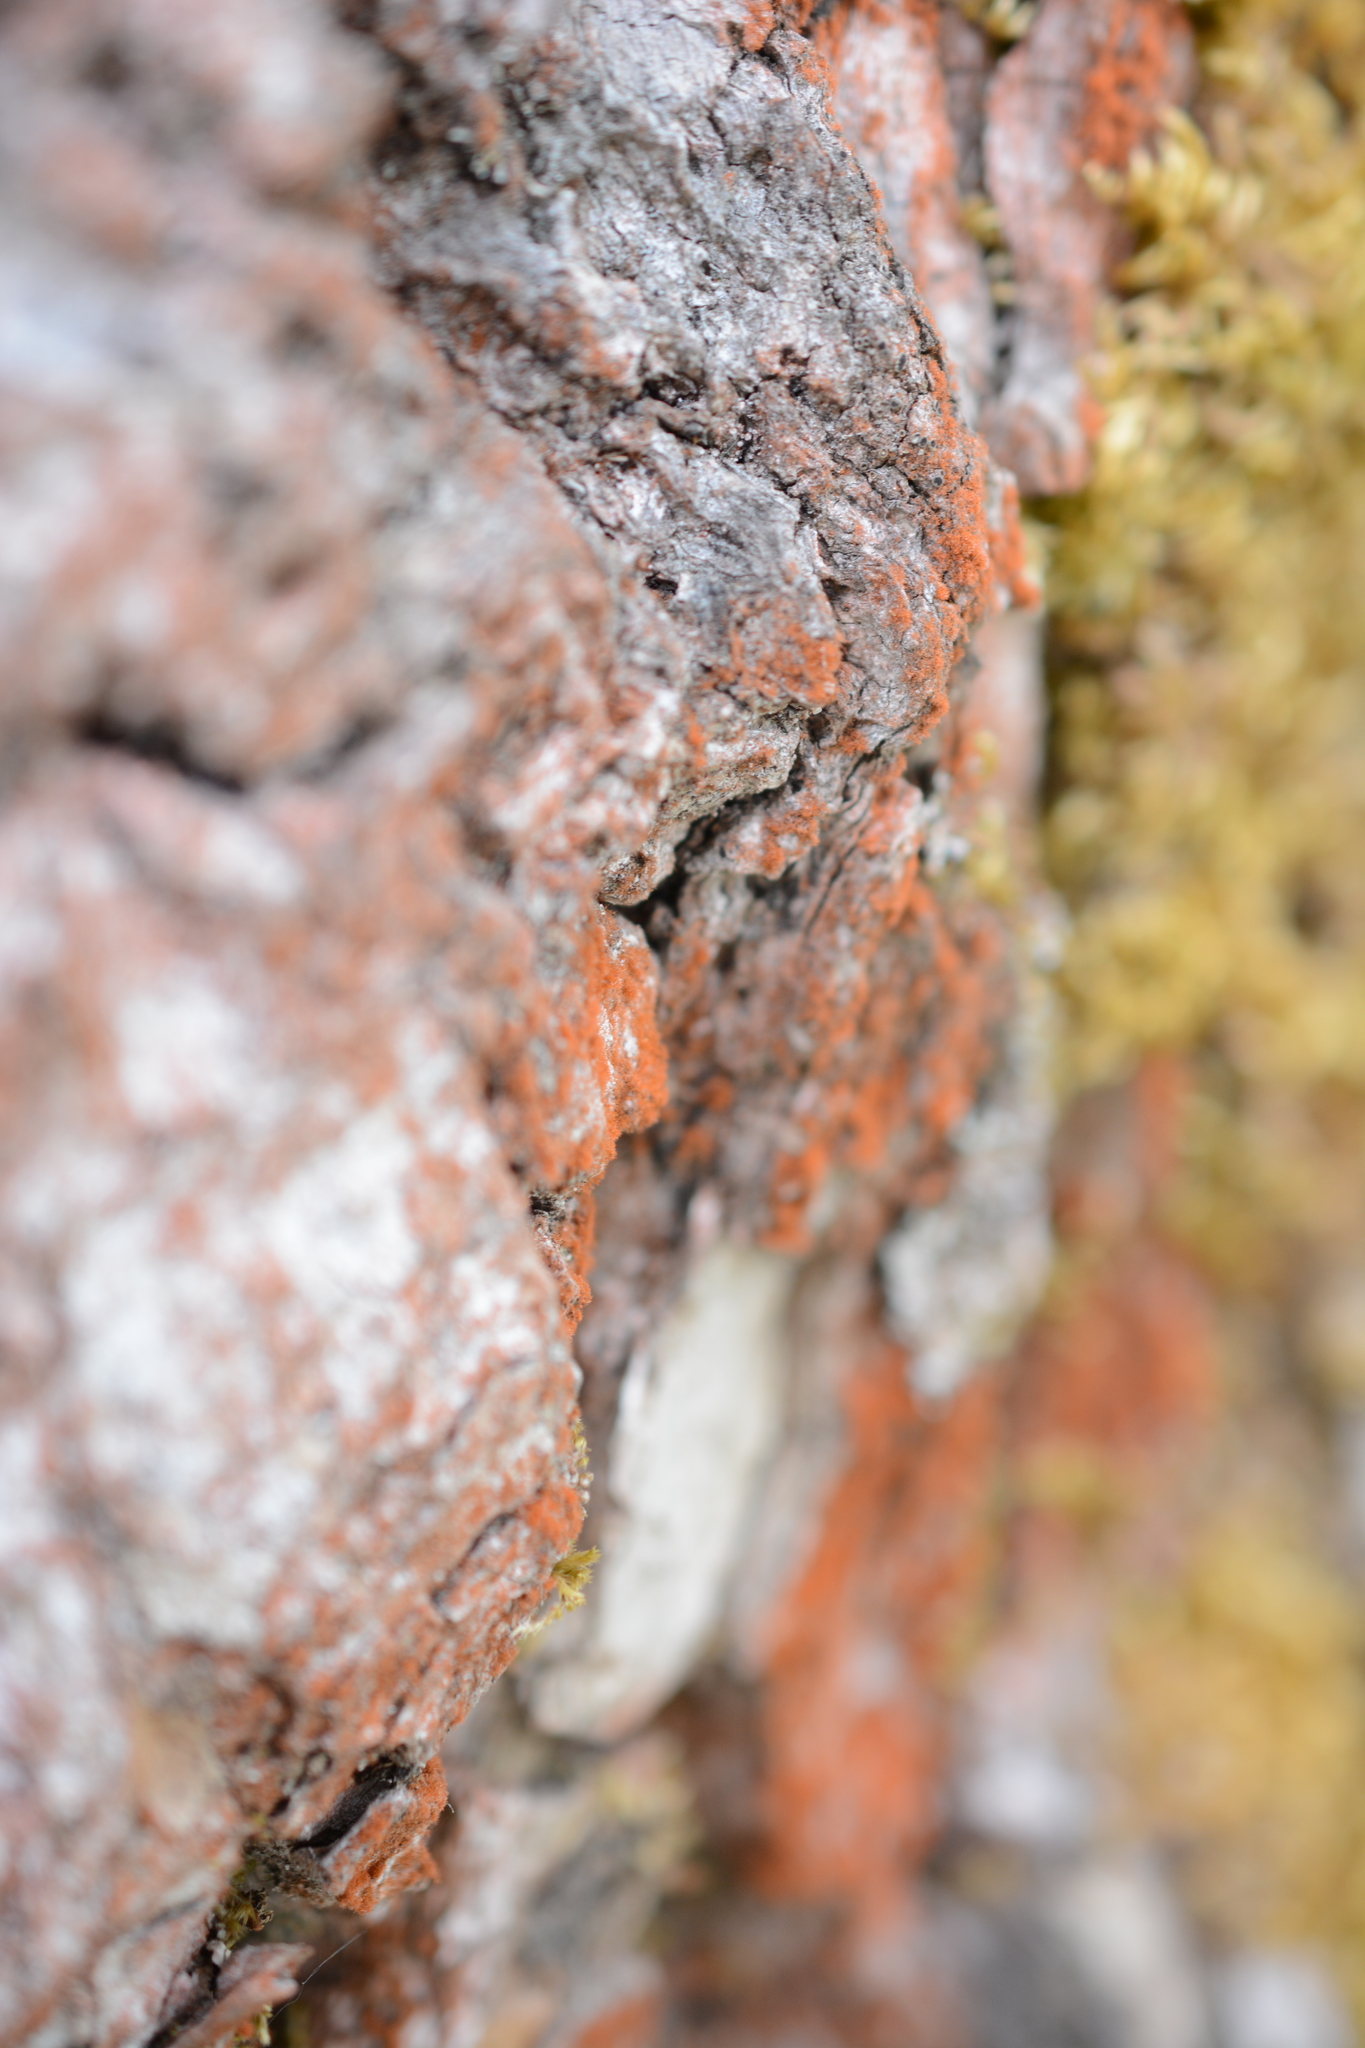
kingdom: Plantae
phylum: Chlorophyta
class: Ulvophyceae
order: Trentepohliales
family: Trentepohliaceae
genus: Trentepohlia
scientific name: Trentepohlia aurea
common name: Orange rock hair
